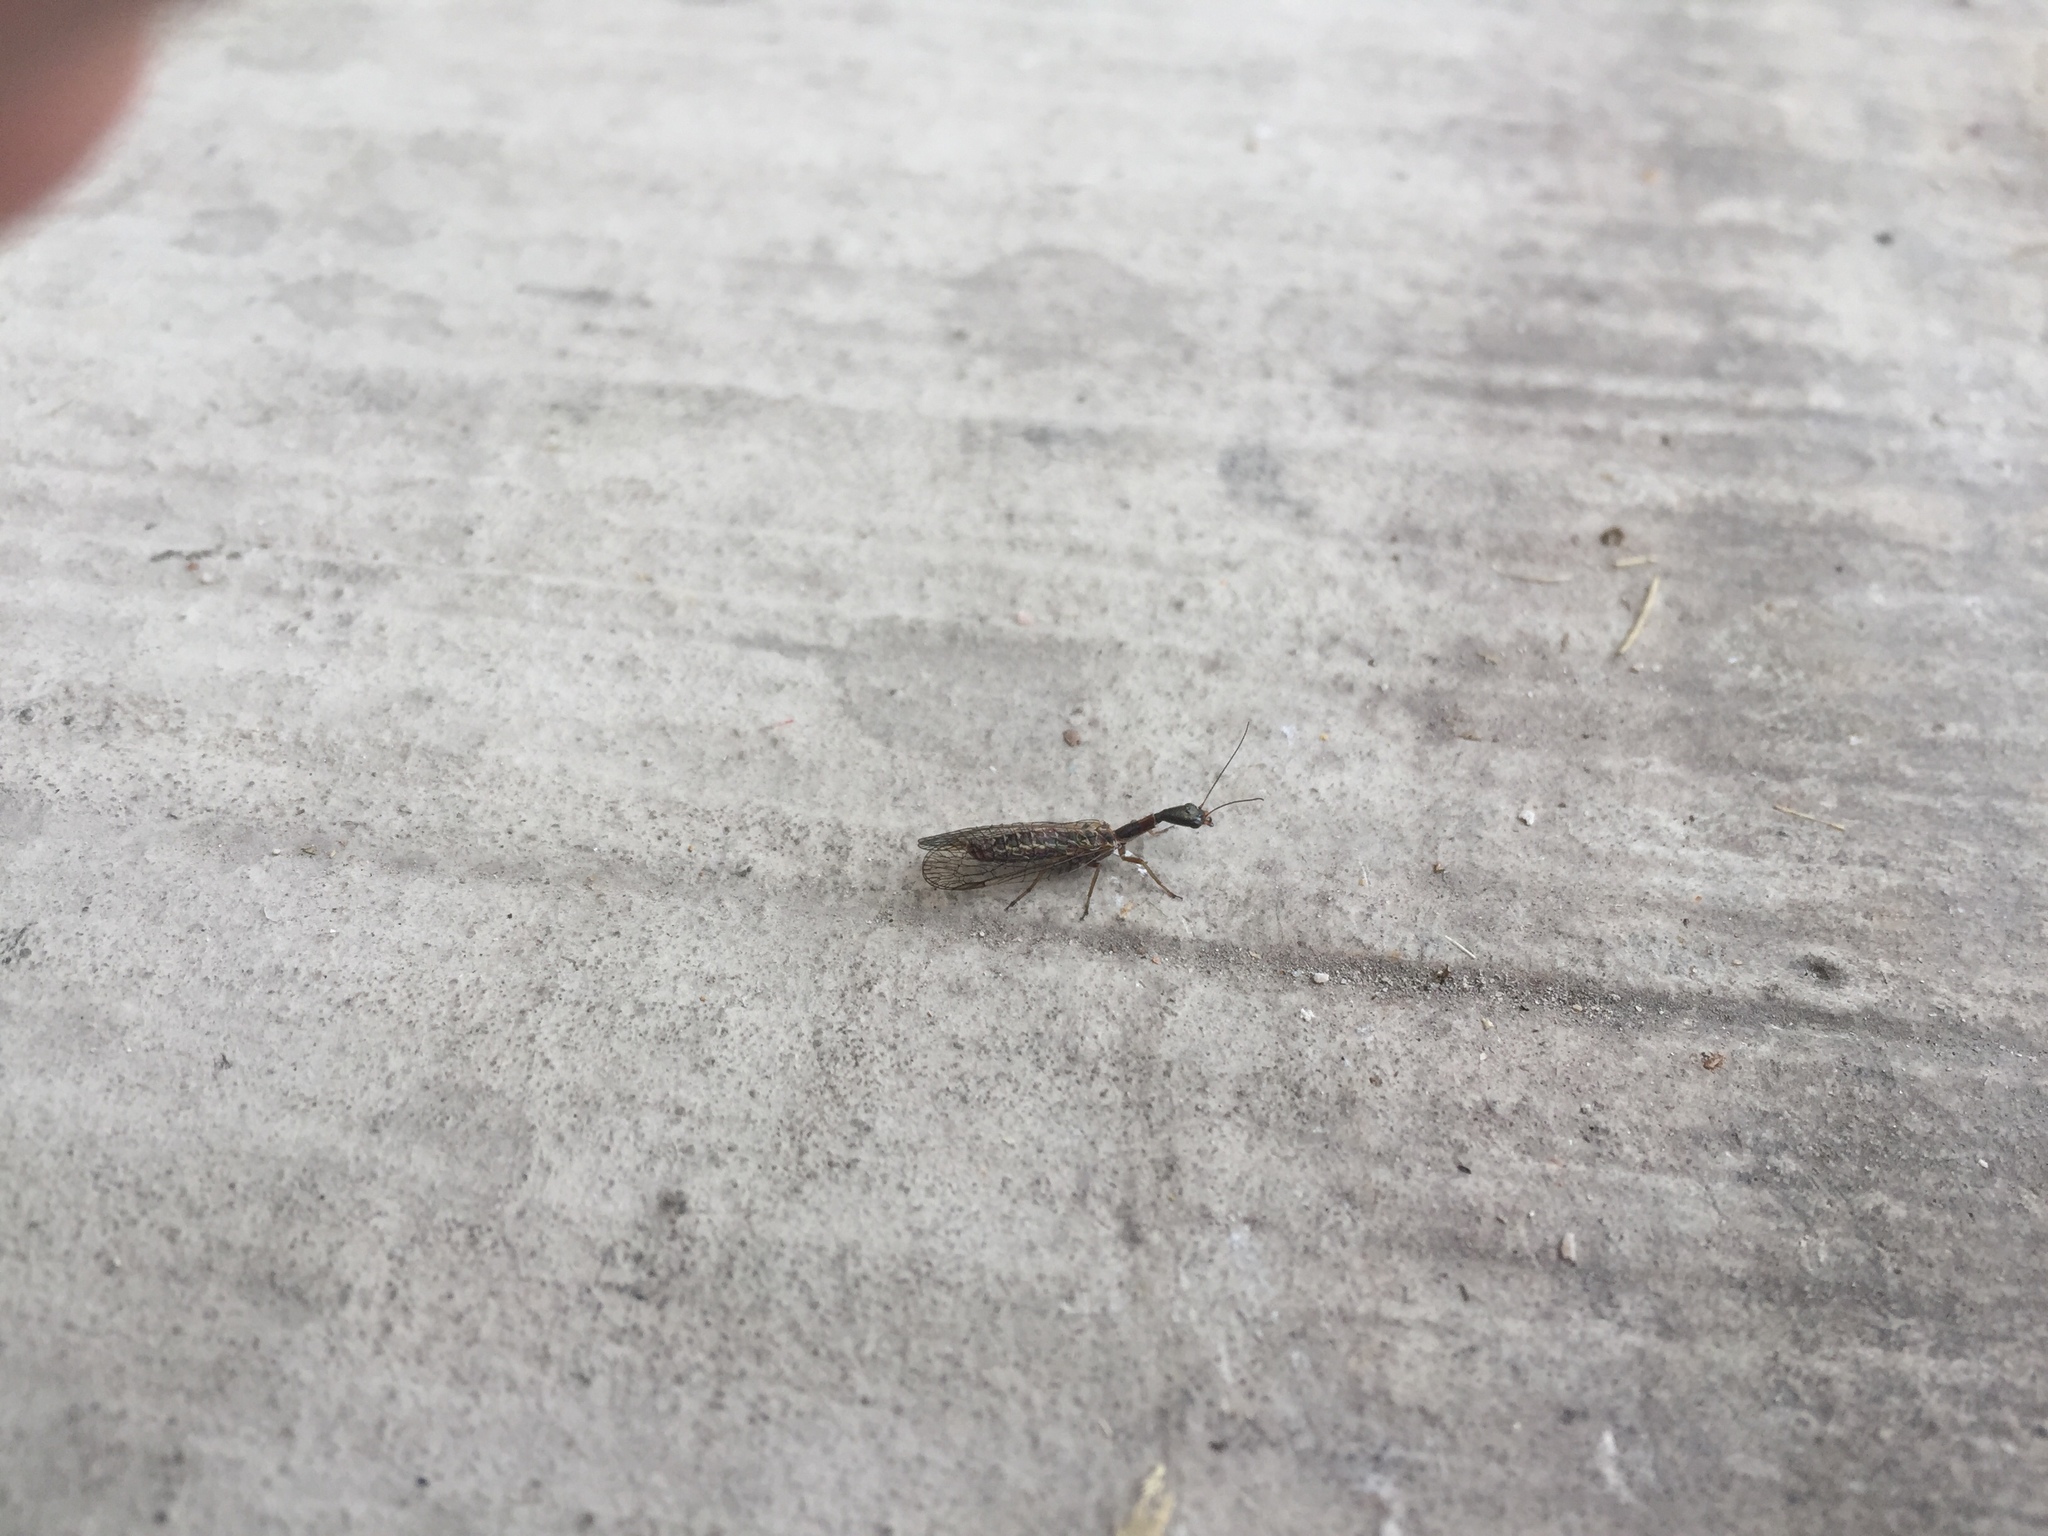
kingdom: Animalia
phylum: Arthropoda
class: Insecta
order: Raphidioptera
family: Raphidiidae
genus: Agulla
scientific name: Agulla bicolor
